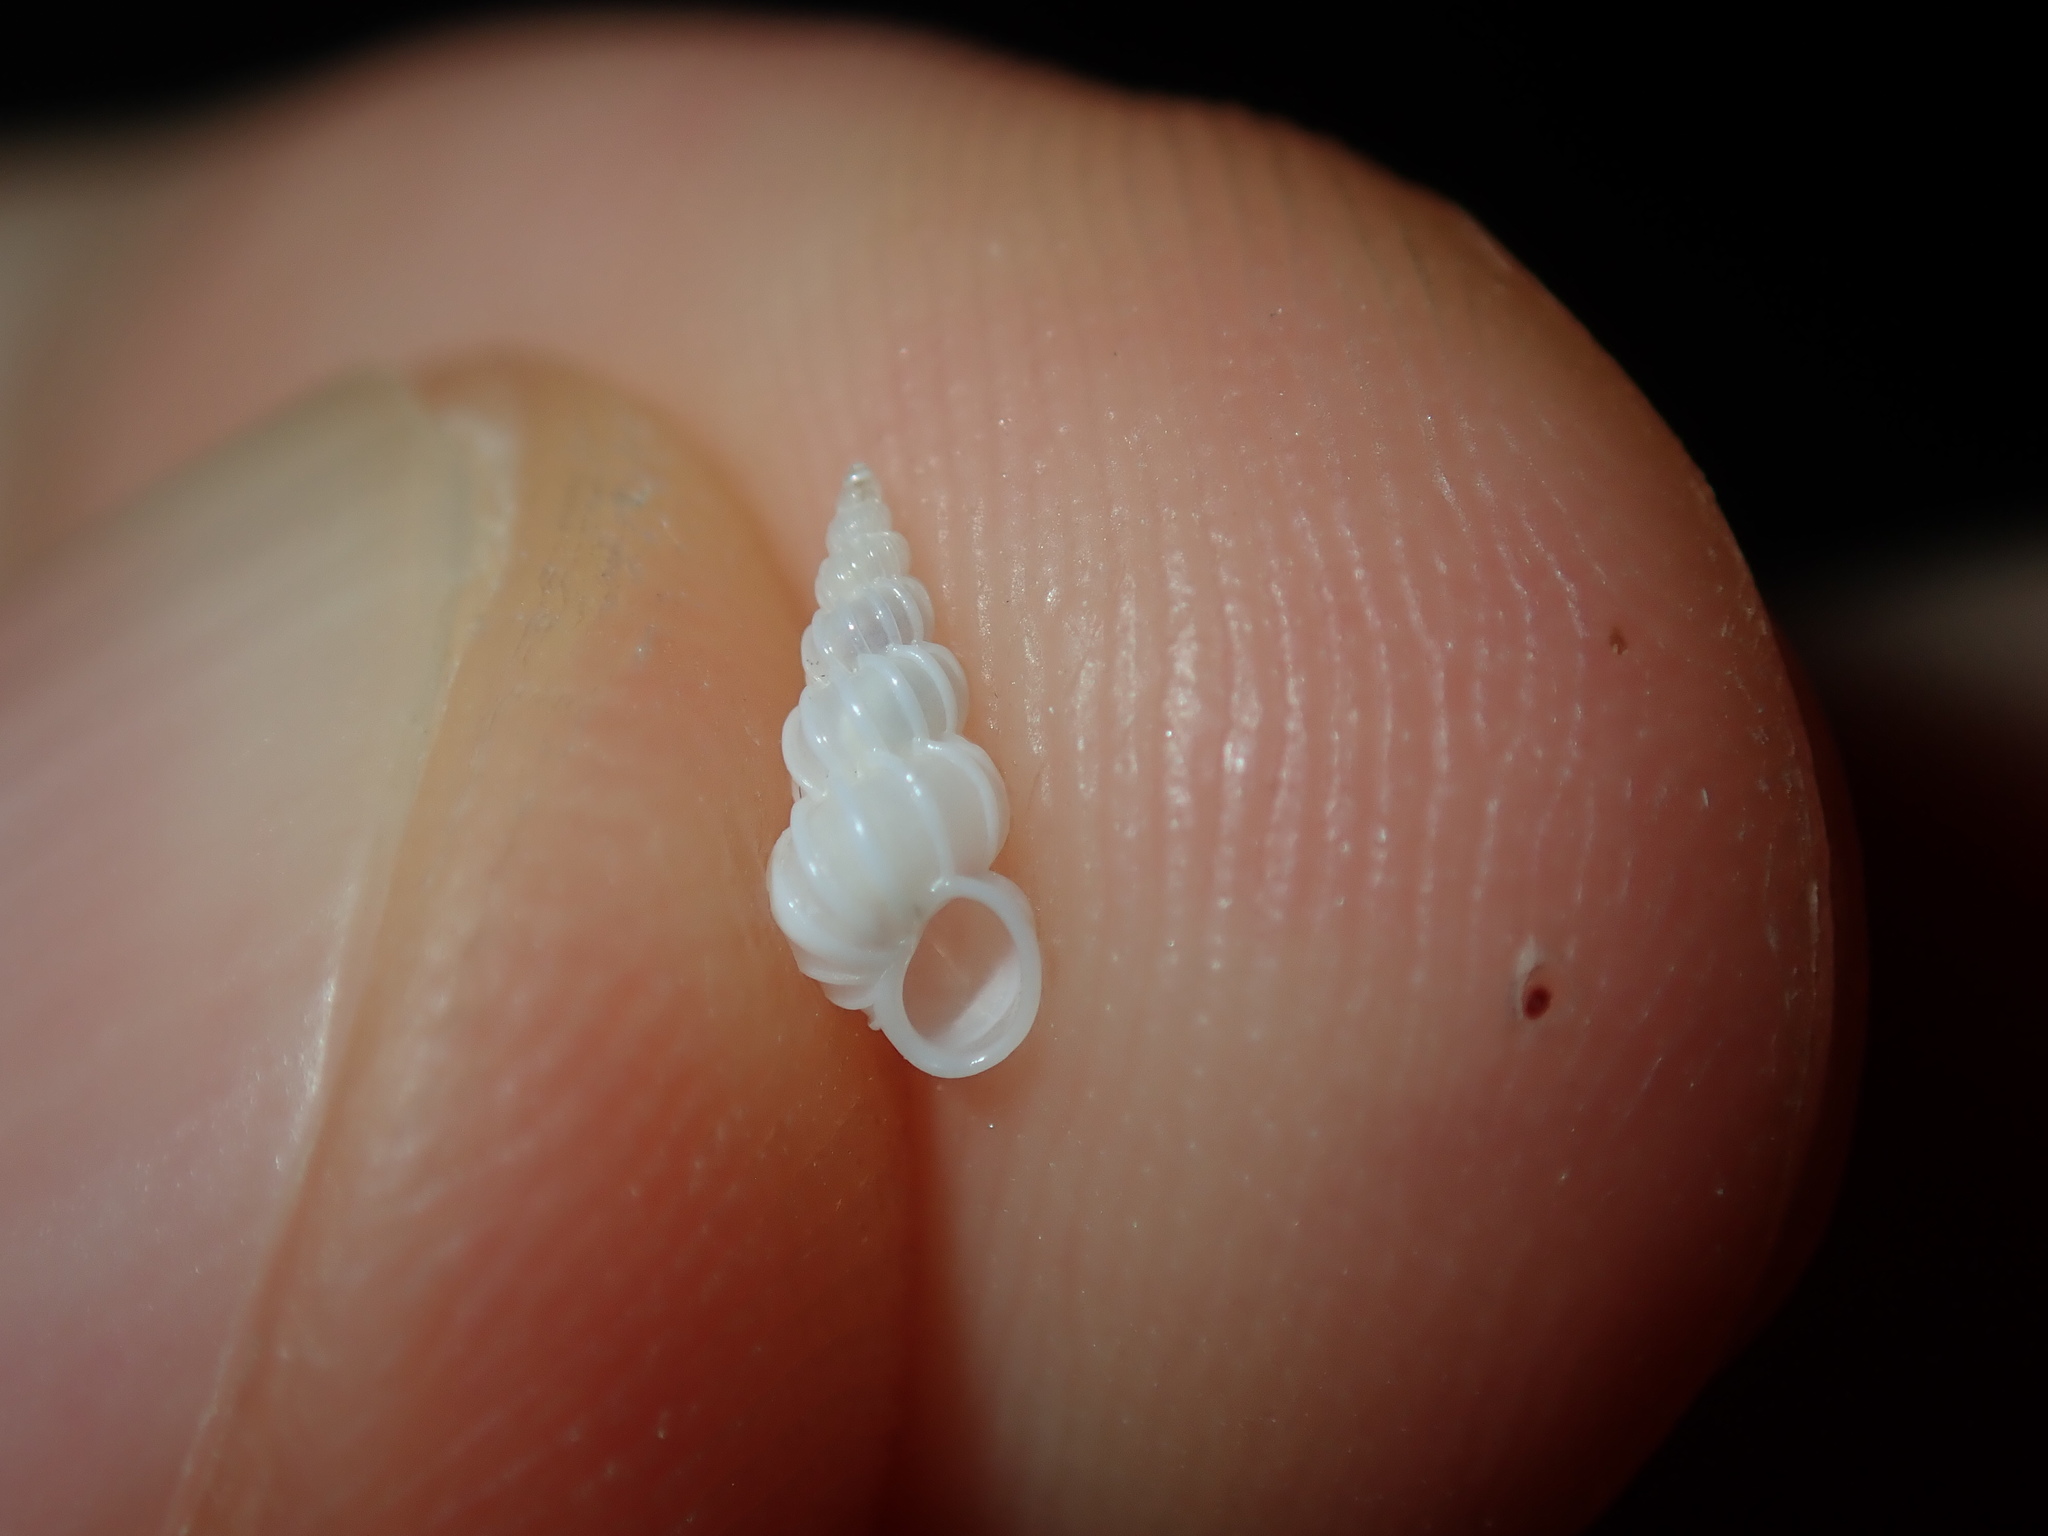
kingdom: Animalia
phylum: Mollusca
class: Gastropoda
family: Epitoniidae
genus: Epitonium
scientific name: Epitonium jukesianum
